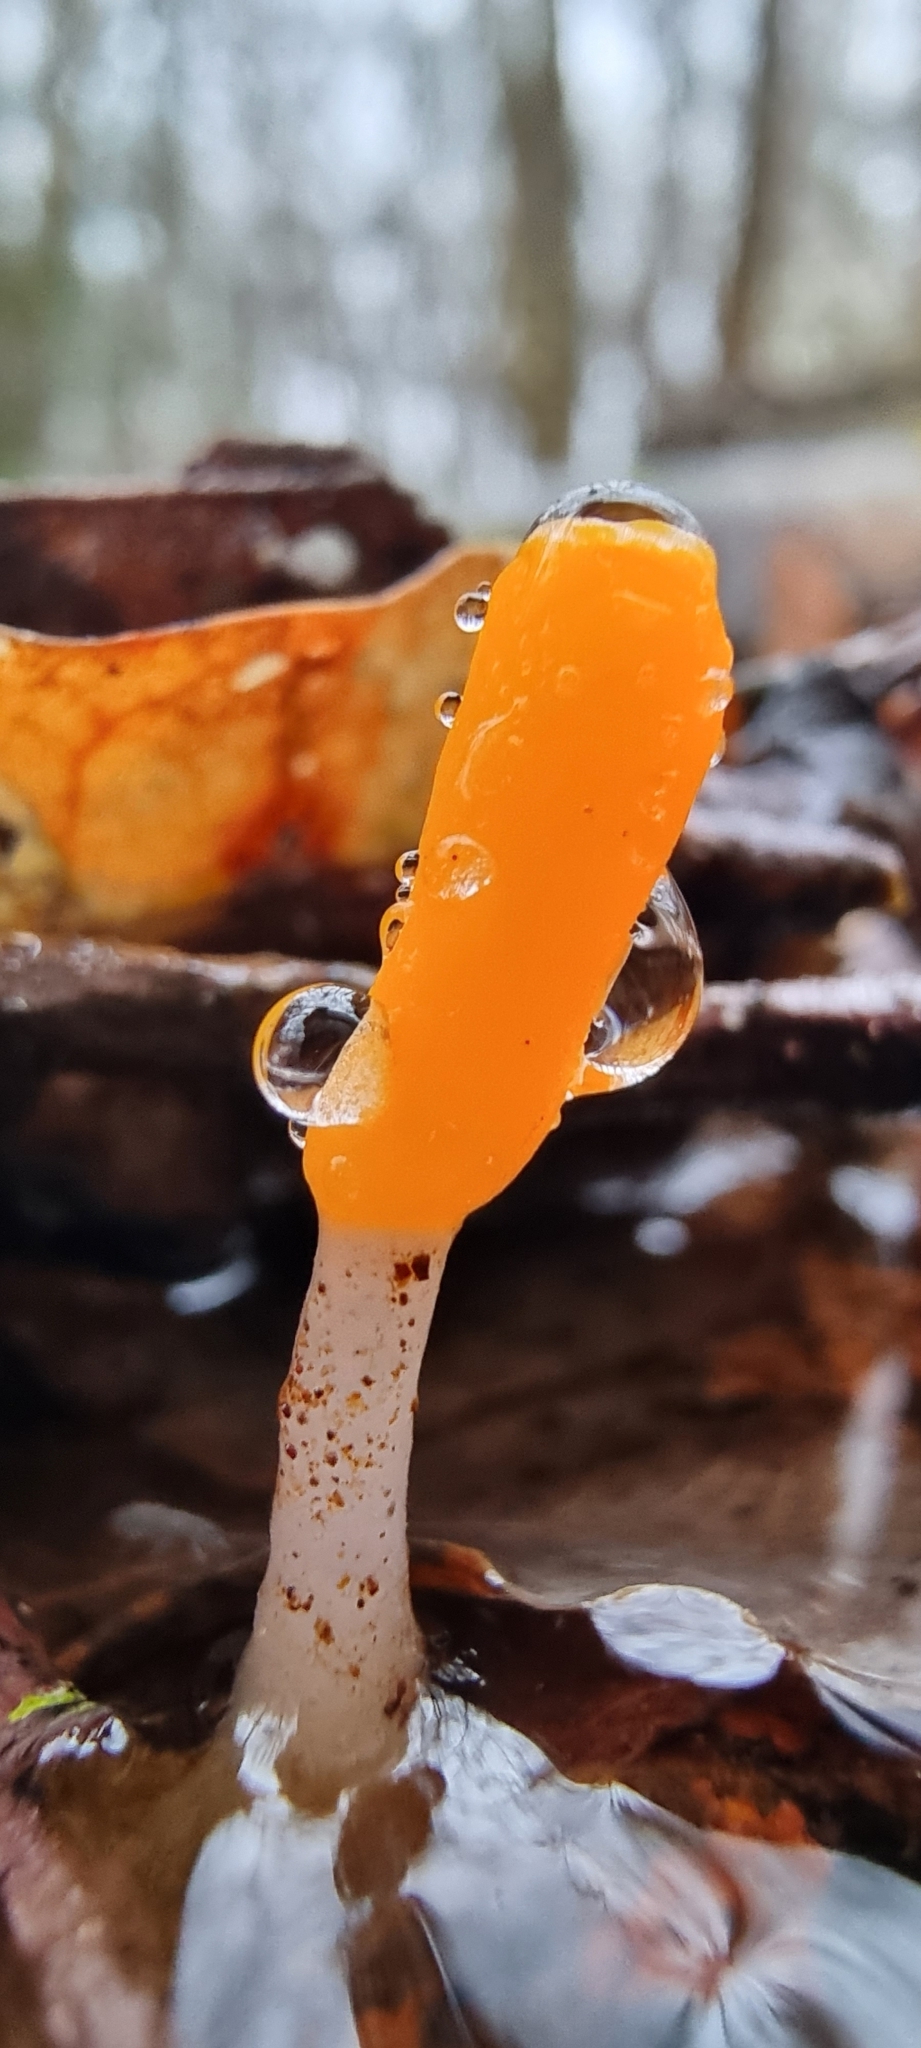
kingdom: Fungi
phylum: Ascomycota
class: Leotiomycetes
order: Helotiales
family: Cenangiaceae
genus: Mitrula
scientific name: Mitrula paludosa
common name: Bog beacon
